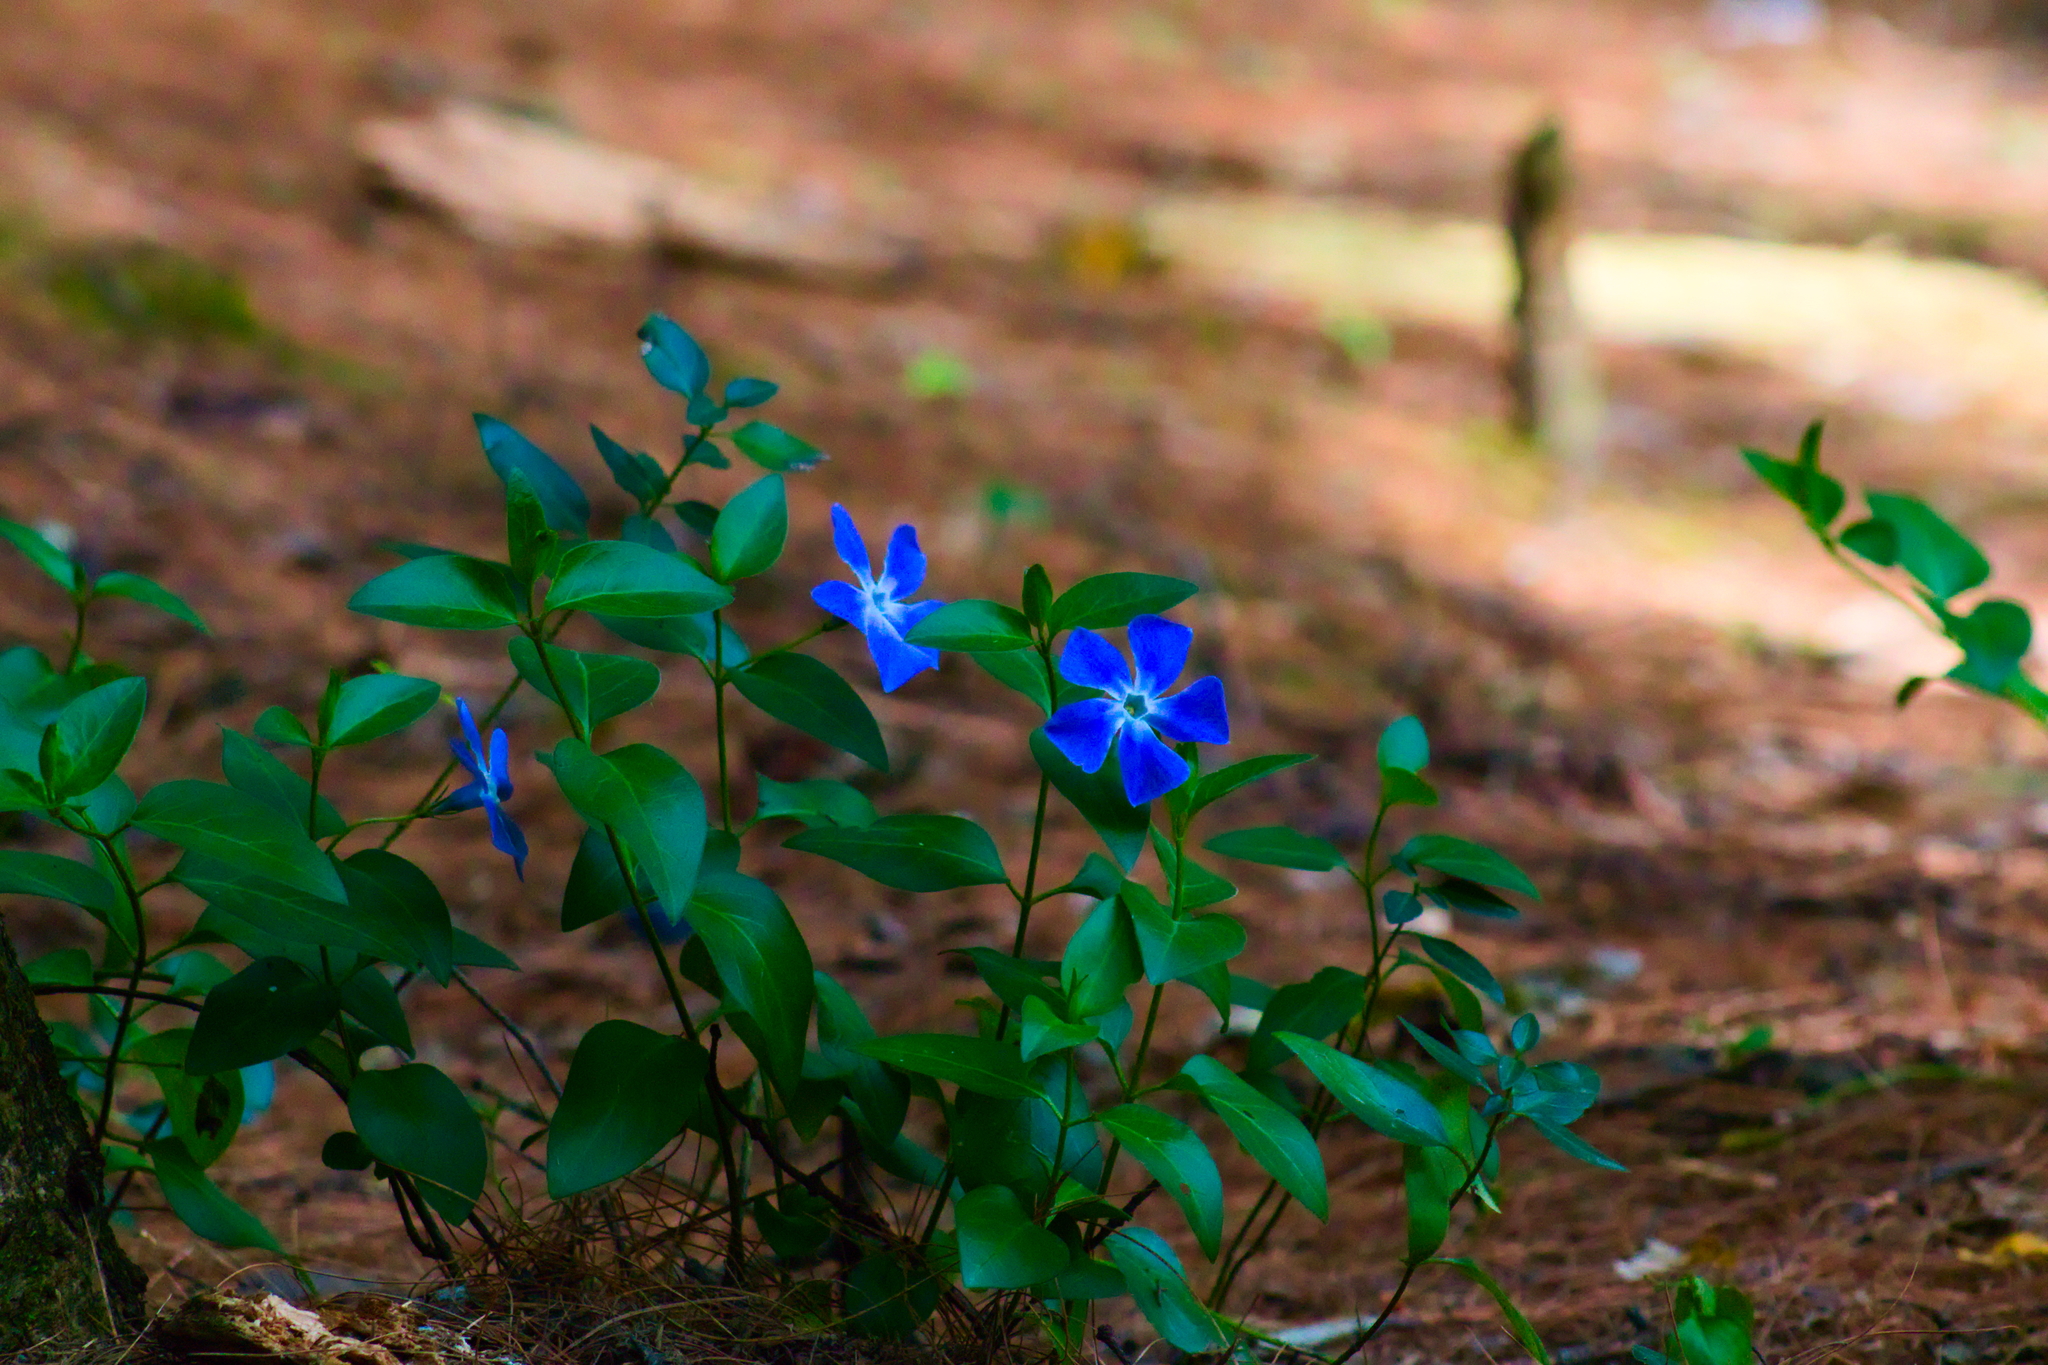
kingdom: Plantae
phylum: Tracheophyta
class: Magnoliopsida
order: Gentianales
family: Apocynaceae
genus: Vinca
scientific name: Vinca major
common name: Greater periwinkle
